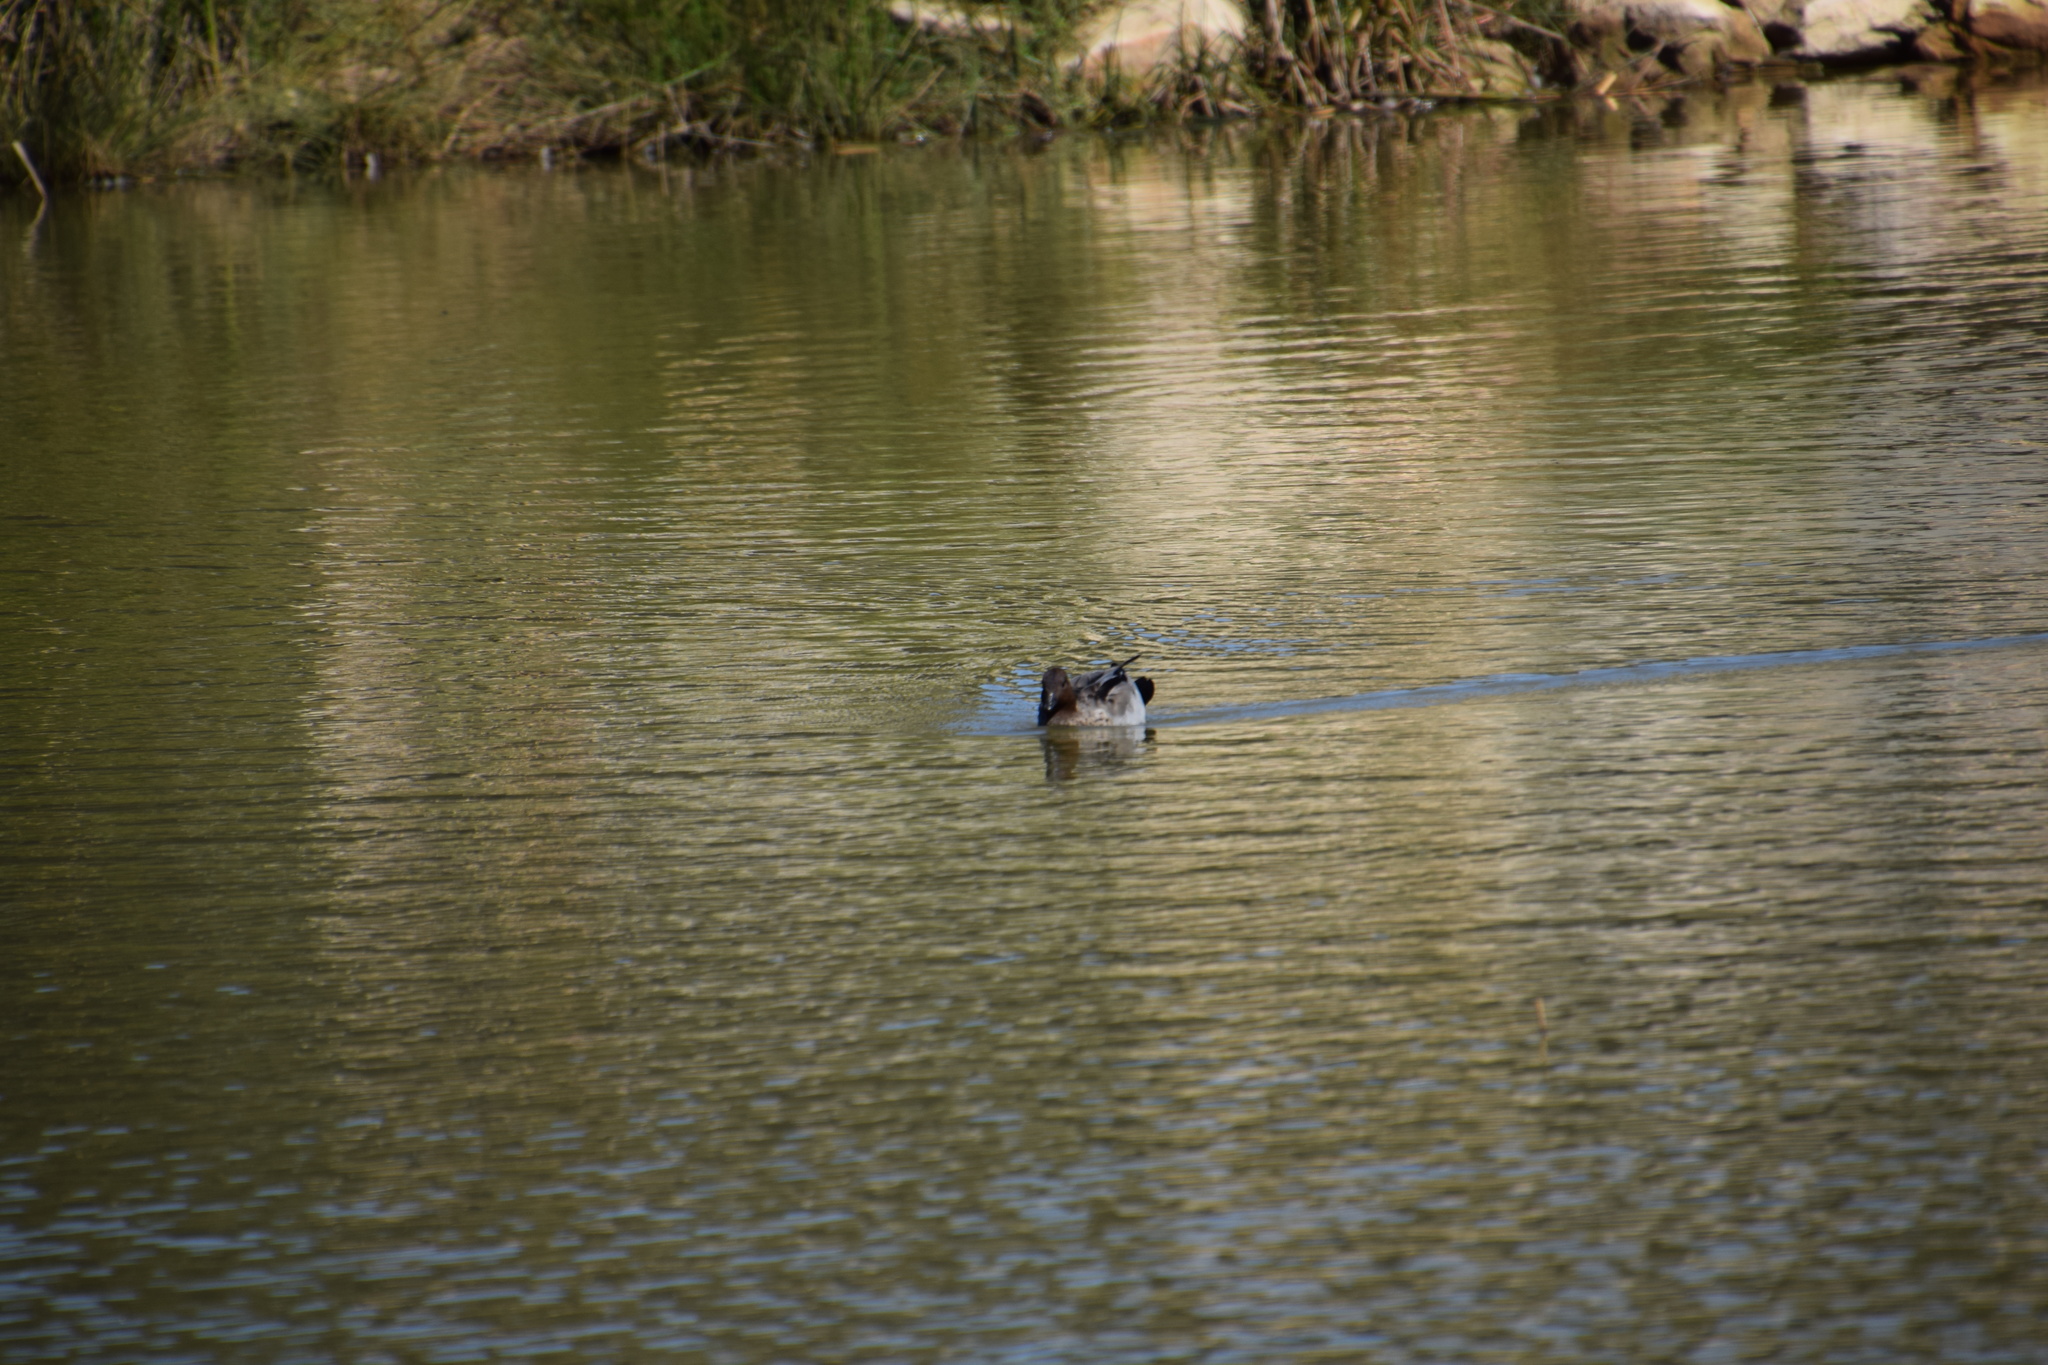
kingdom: Animalia
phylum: Chordata
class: Aves
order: Anseriformes
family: Anatidae
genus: Chenonetta
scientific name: Chenonetta jubata
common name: Maned duck
